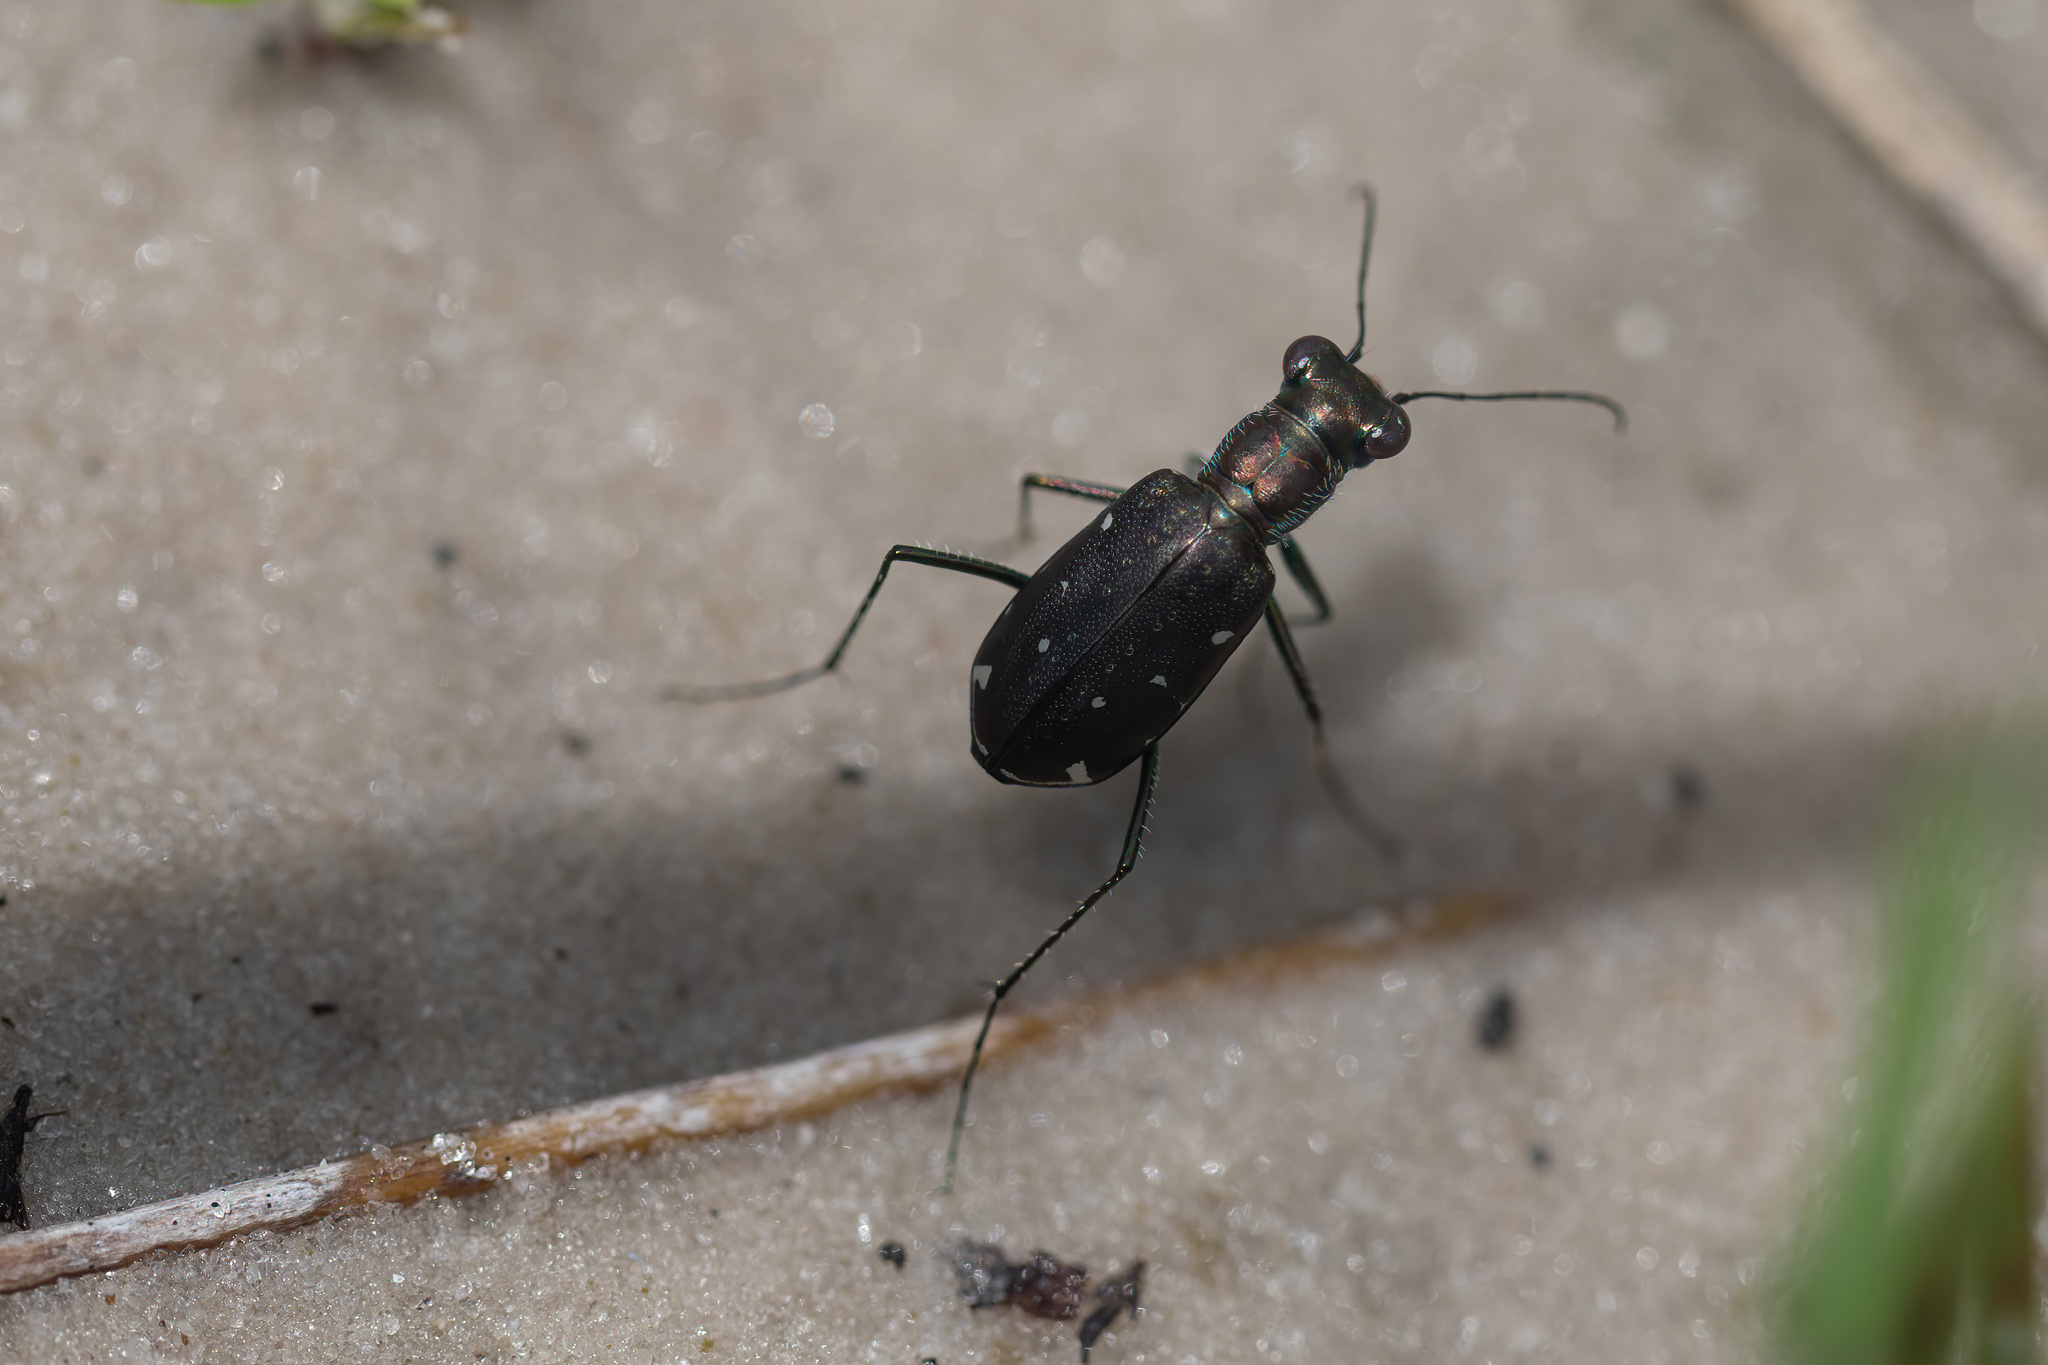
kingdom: Animalia
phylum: Arthropoda
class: Insecta
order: Coleoptera
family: Carabidae
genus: Cicindela
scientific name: Cicindela punctulata
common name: Punctured tiger beetle
